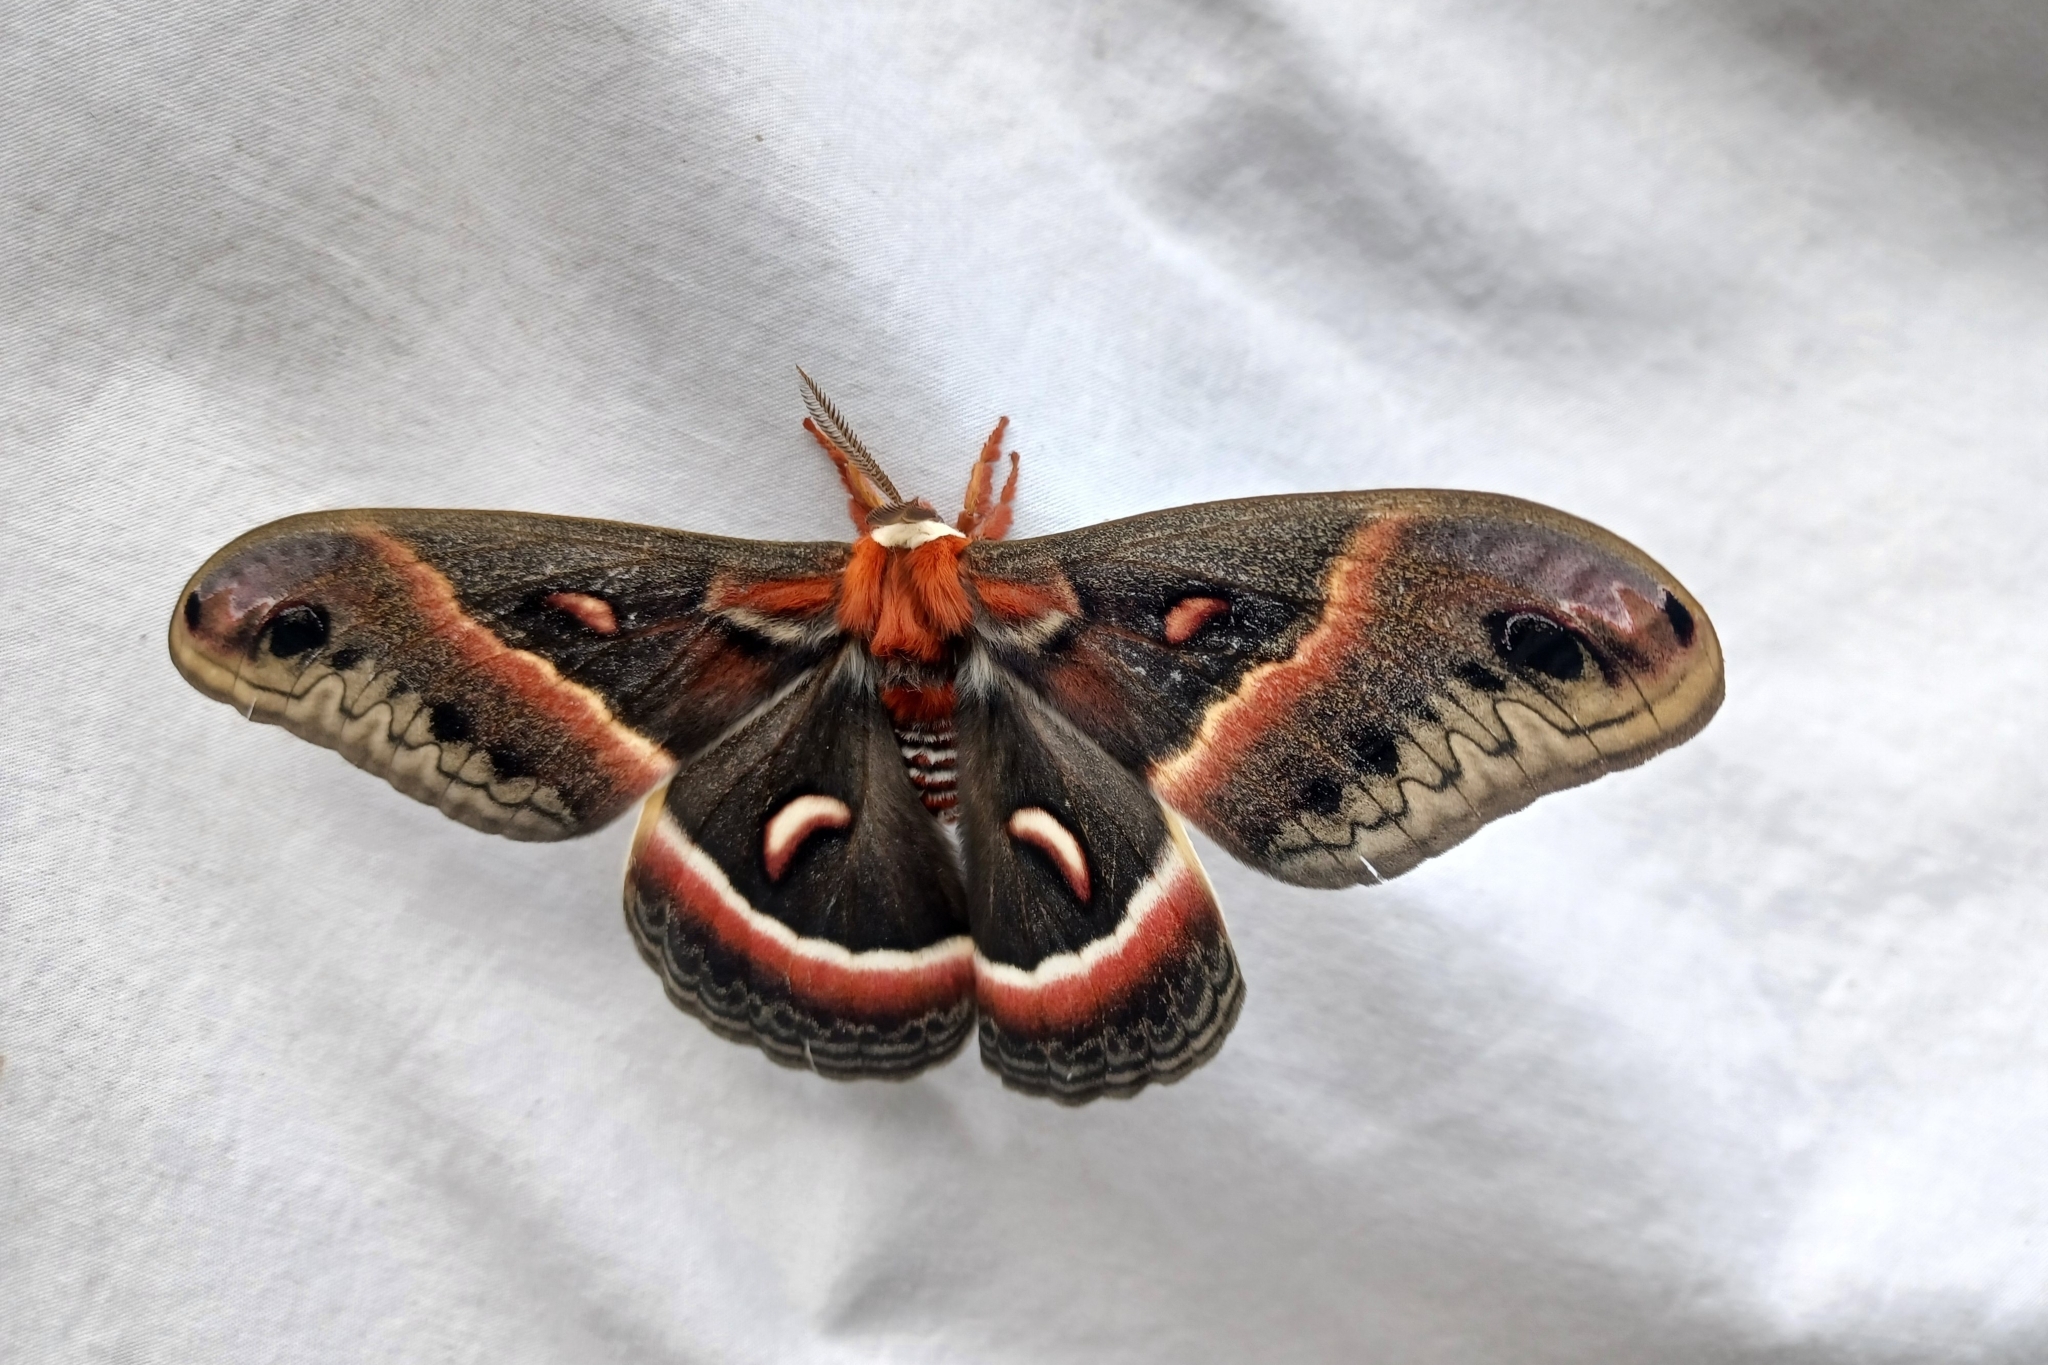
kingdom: Animalia
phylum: Arthropoda
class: Insecta
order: Lepidoptera
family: Saturniidae
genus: Hyalophora
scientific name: Hyalophora cecropia
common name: Cecropia silkmoth
